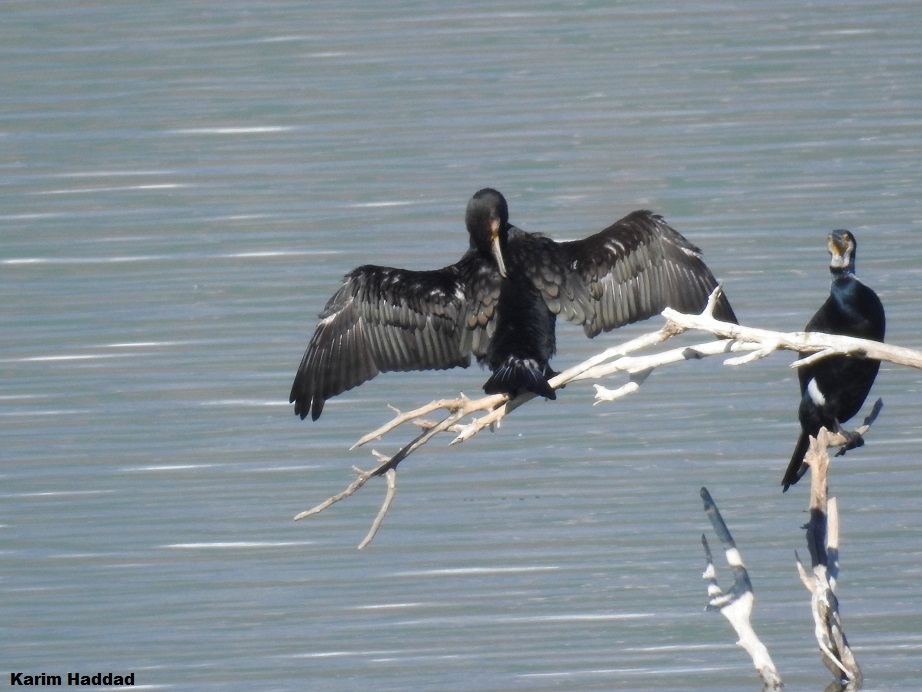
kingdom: Animalia
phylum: Chordata
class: Aves
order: Suliformes
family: Phalacrocoracidae
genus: Phalacrocorax
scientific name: Phalacrocorax carbo
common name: Great cormorant
